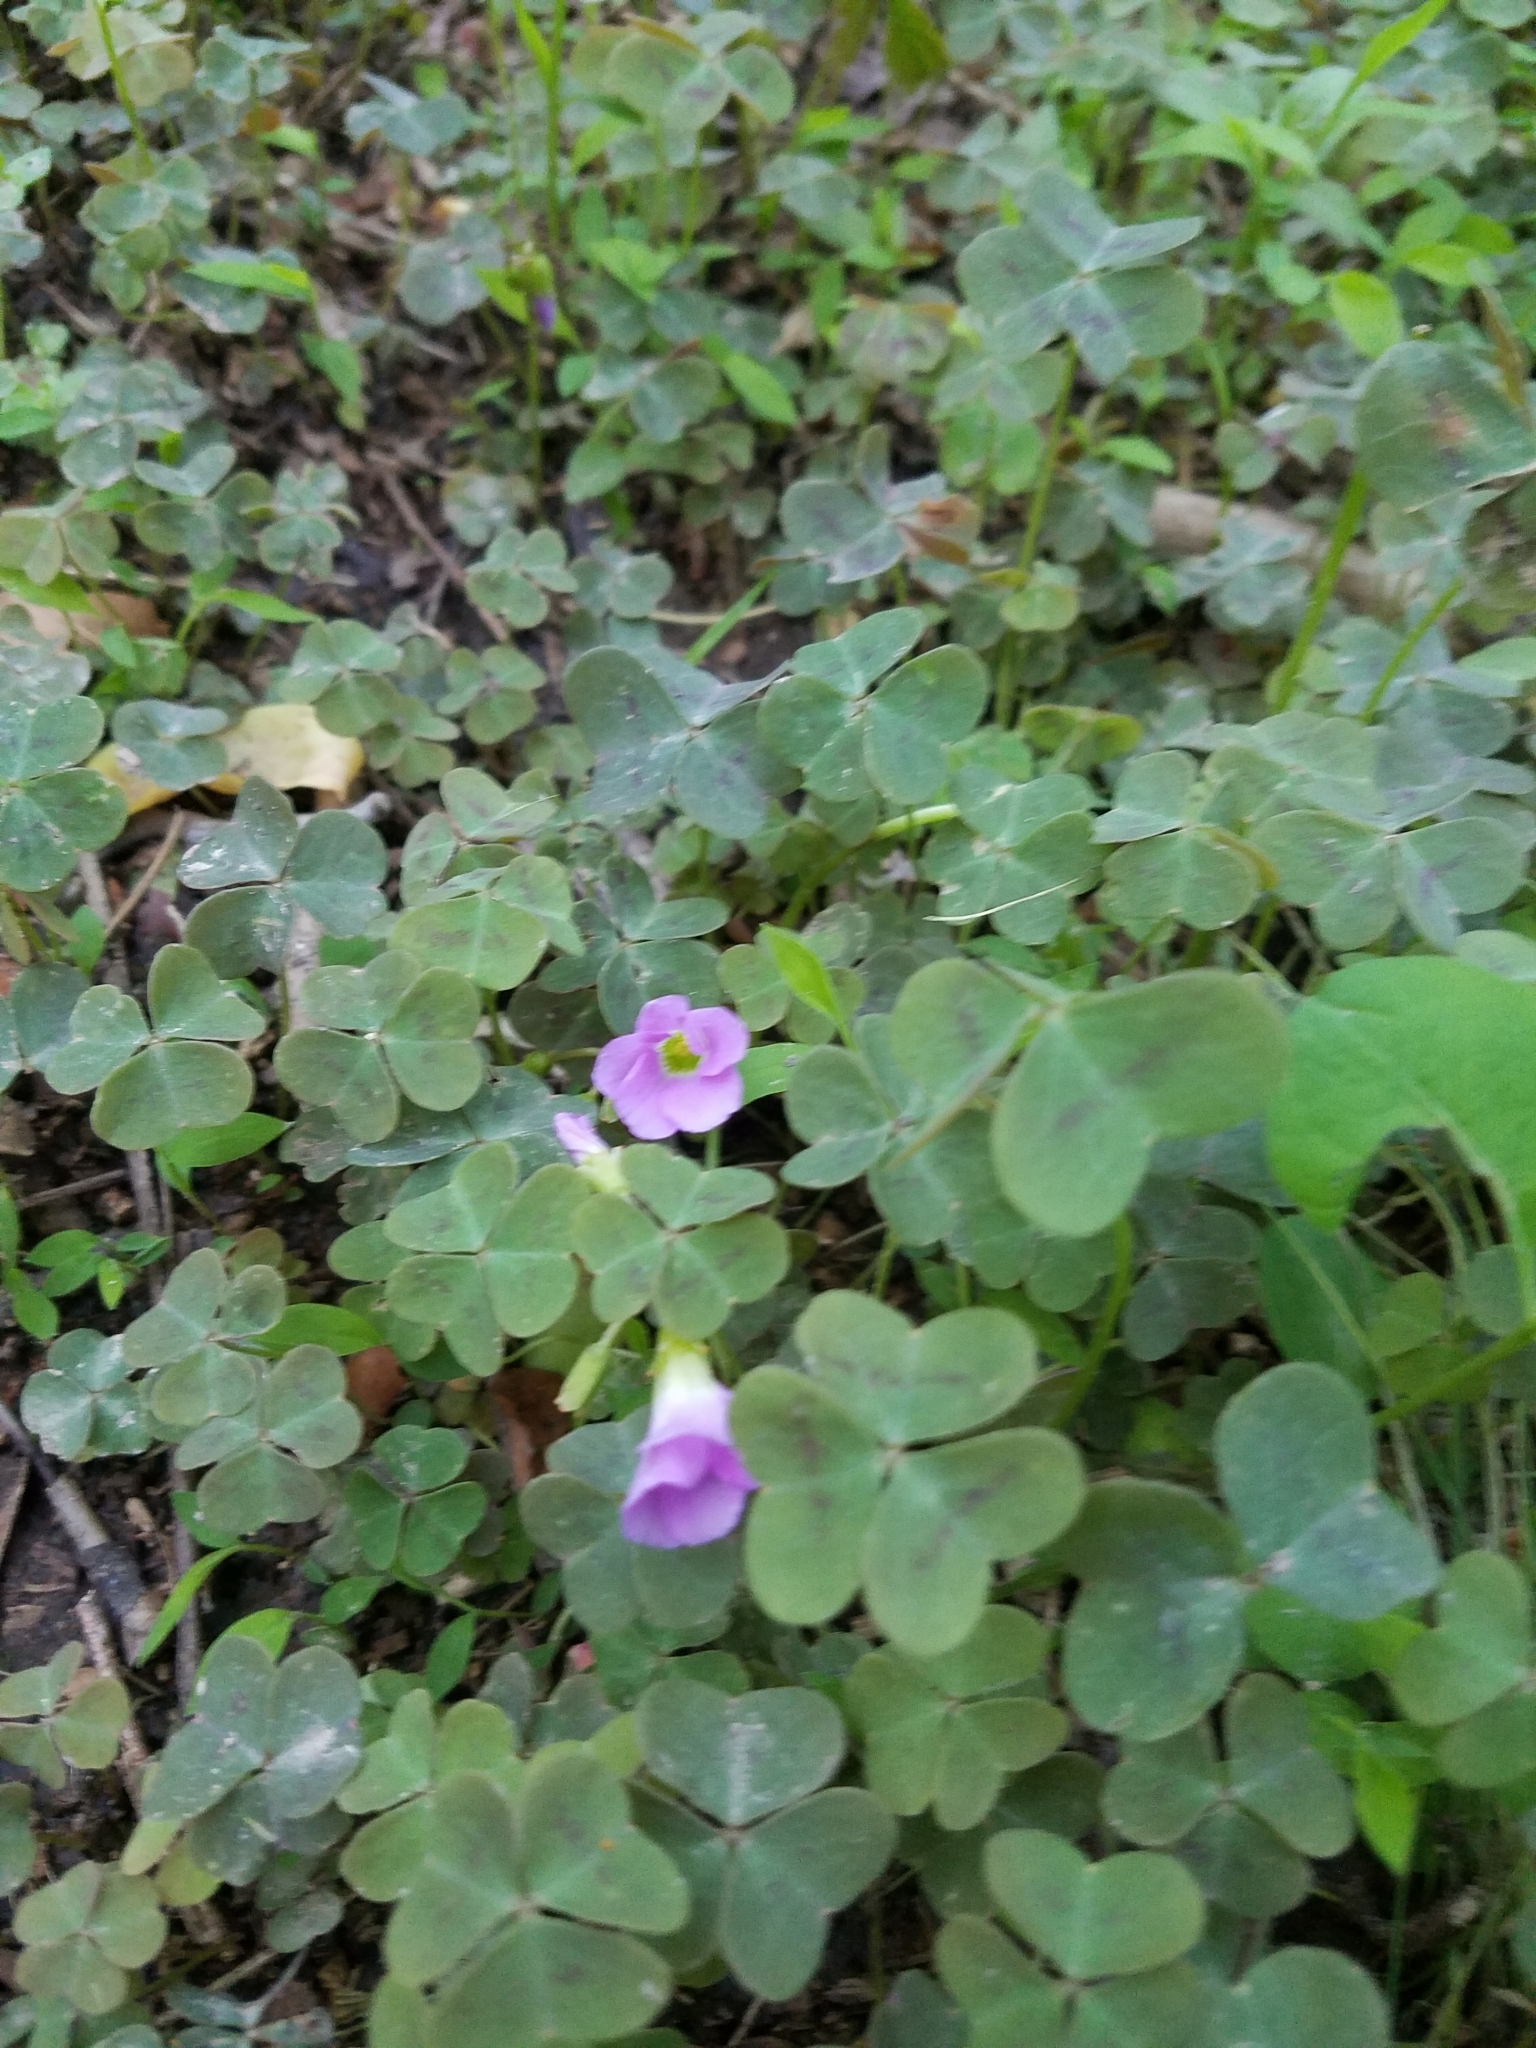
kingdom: Plantae
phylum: Tracheophyta
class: Magnoliopsida
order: Oxalidales
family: Oxalidaceae
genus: Oxalis
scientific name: Oxalis violacea
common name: Violet wood-sorrel
